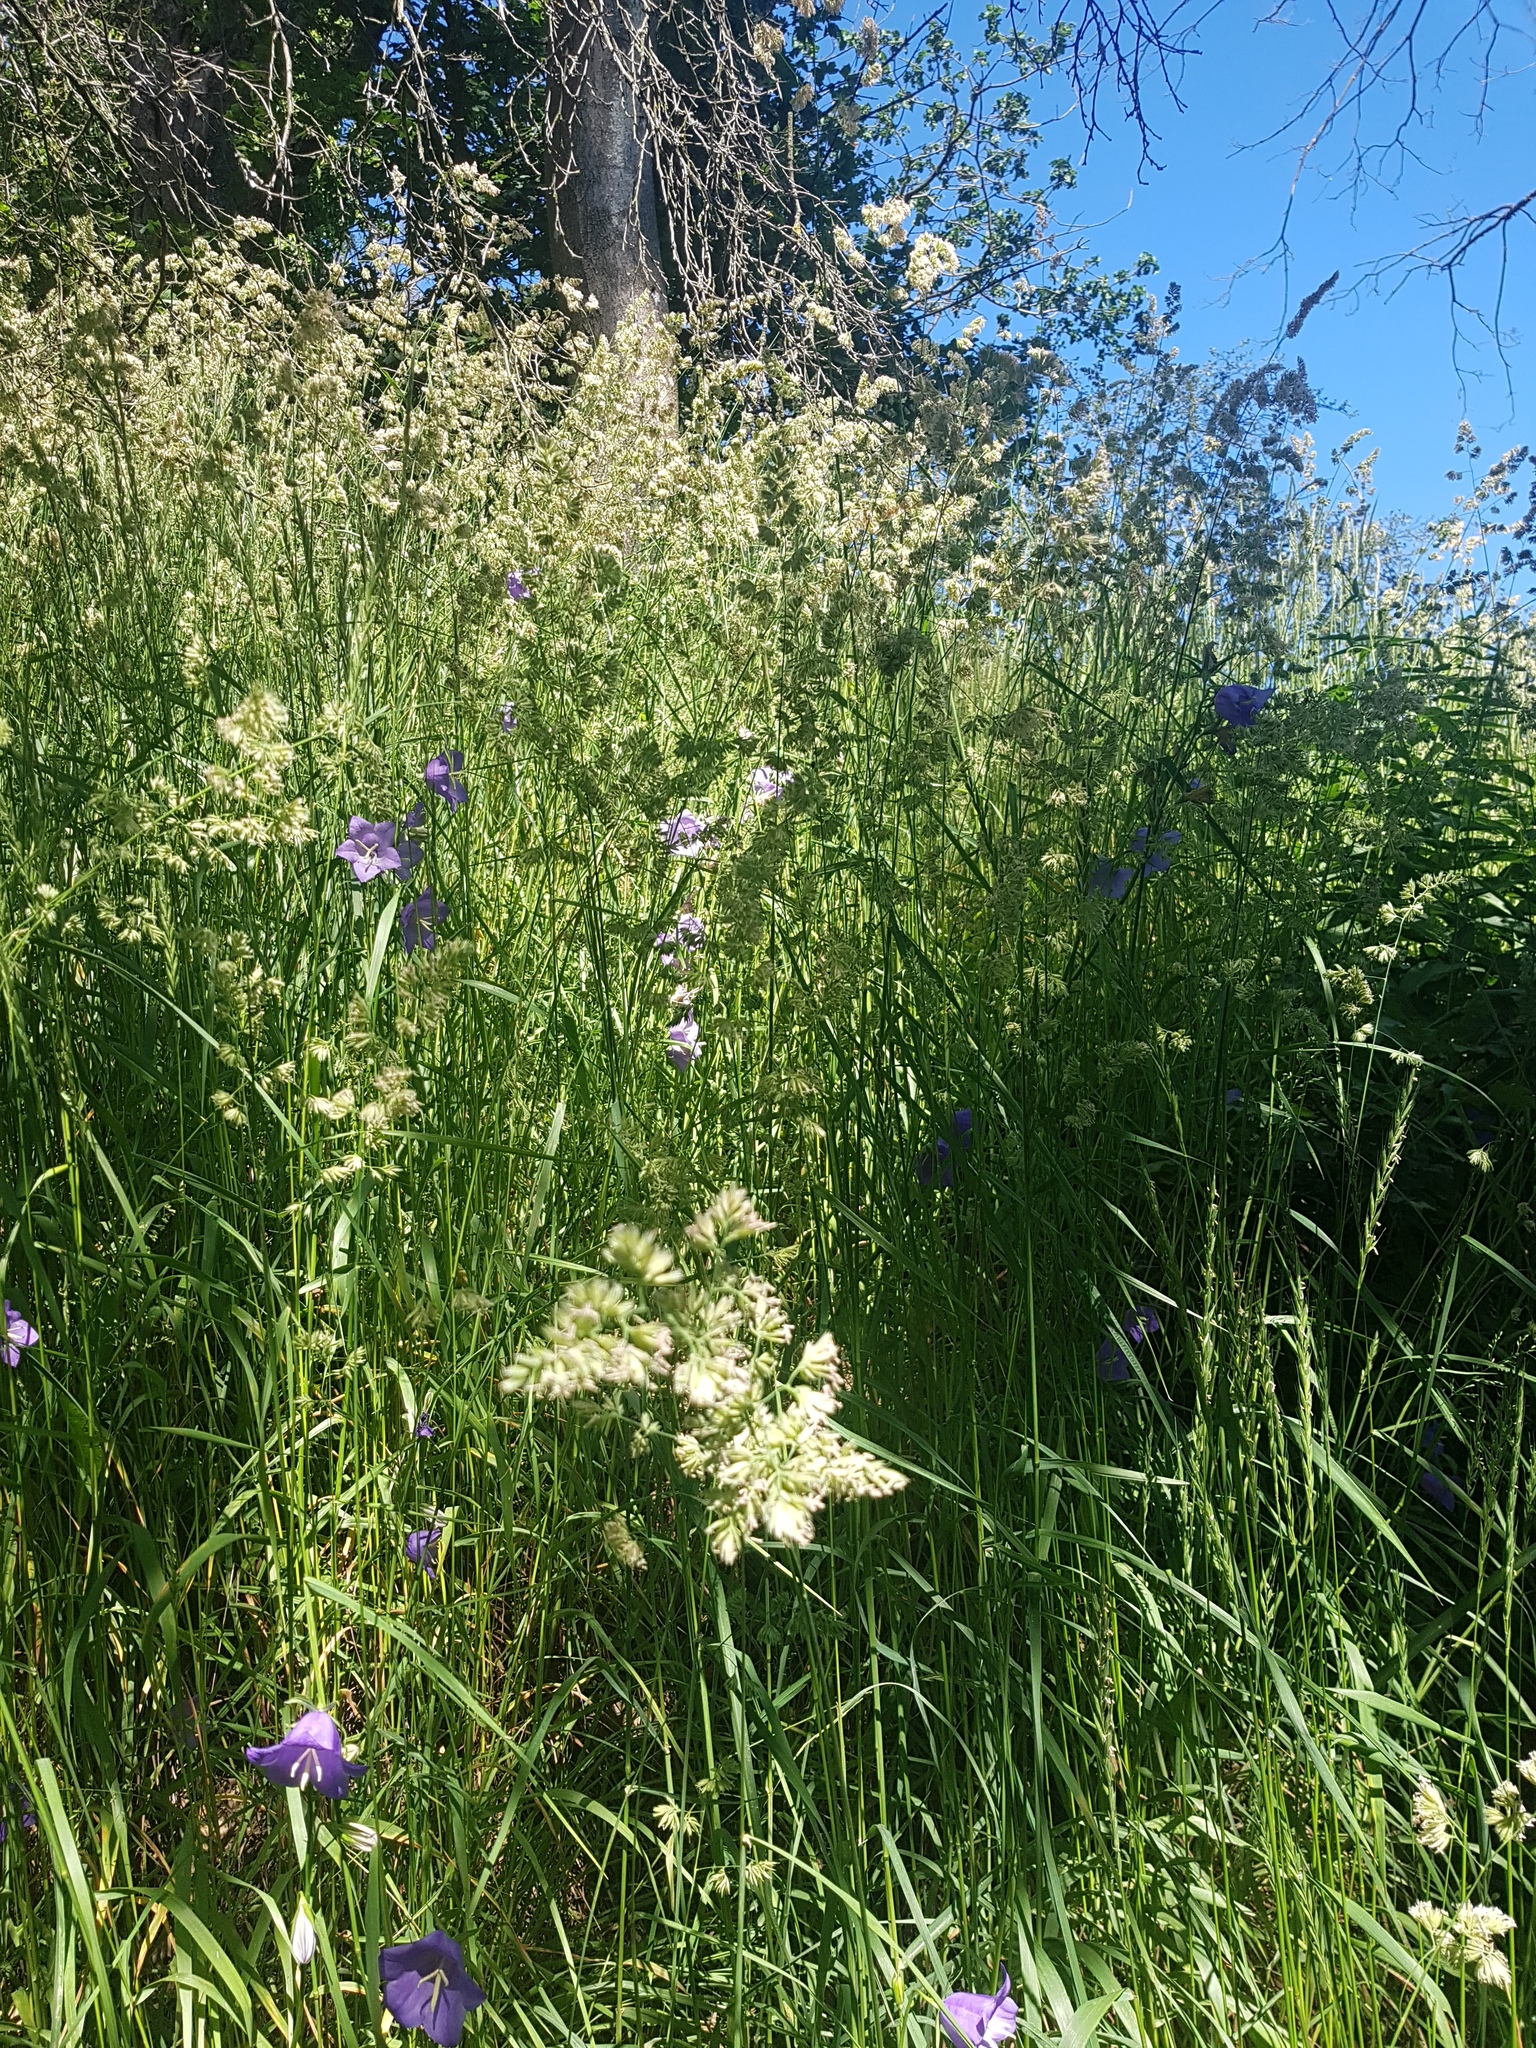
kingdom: Plantae
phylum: Tracheophyta
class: Liliopsida
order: Poales
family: Poaceae
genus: Dactylis
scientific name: Dactylis glomerata
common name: Orchardgrass
